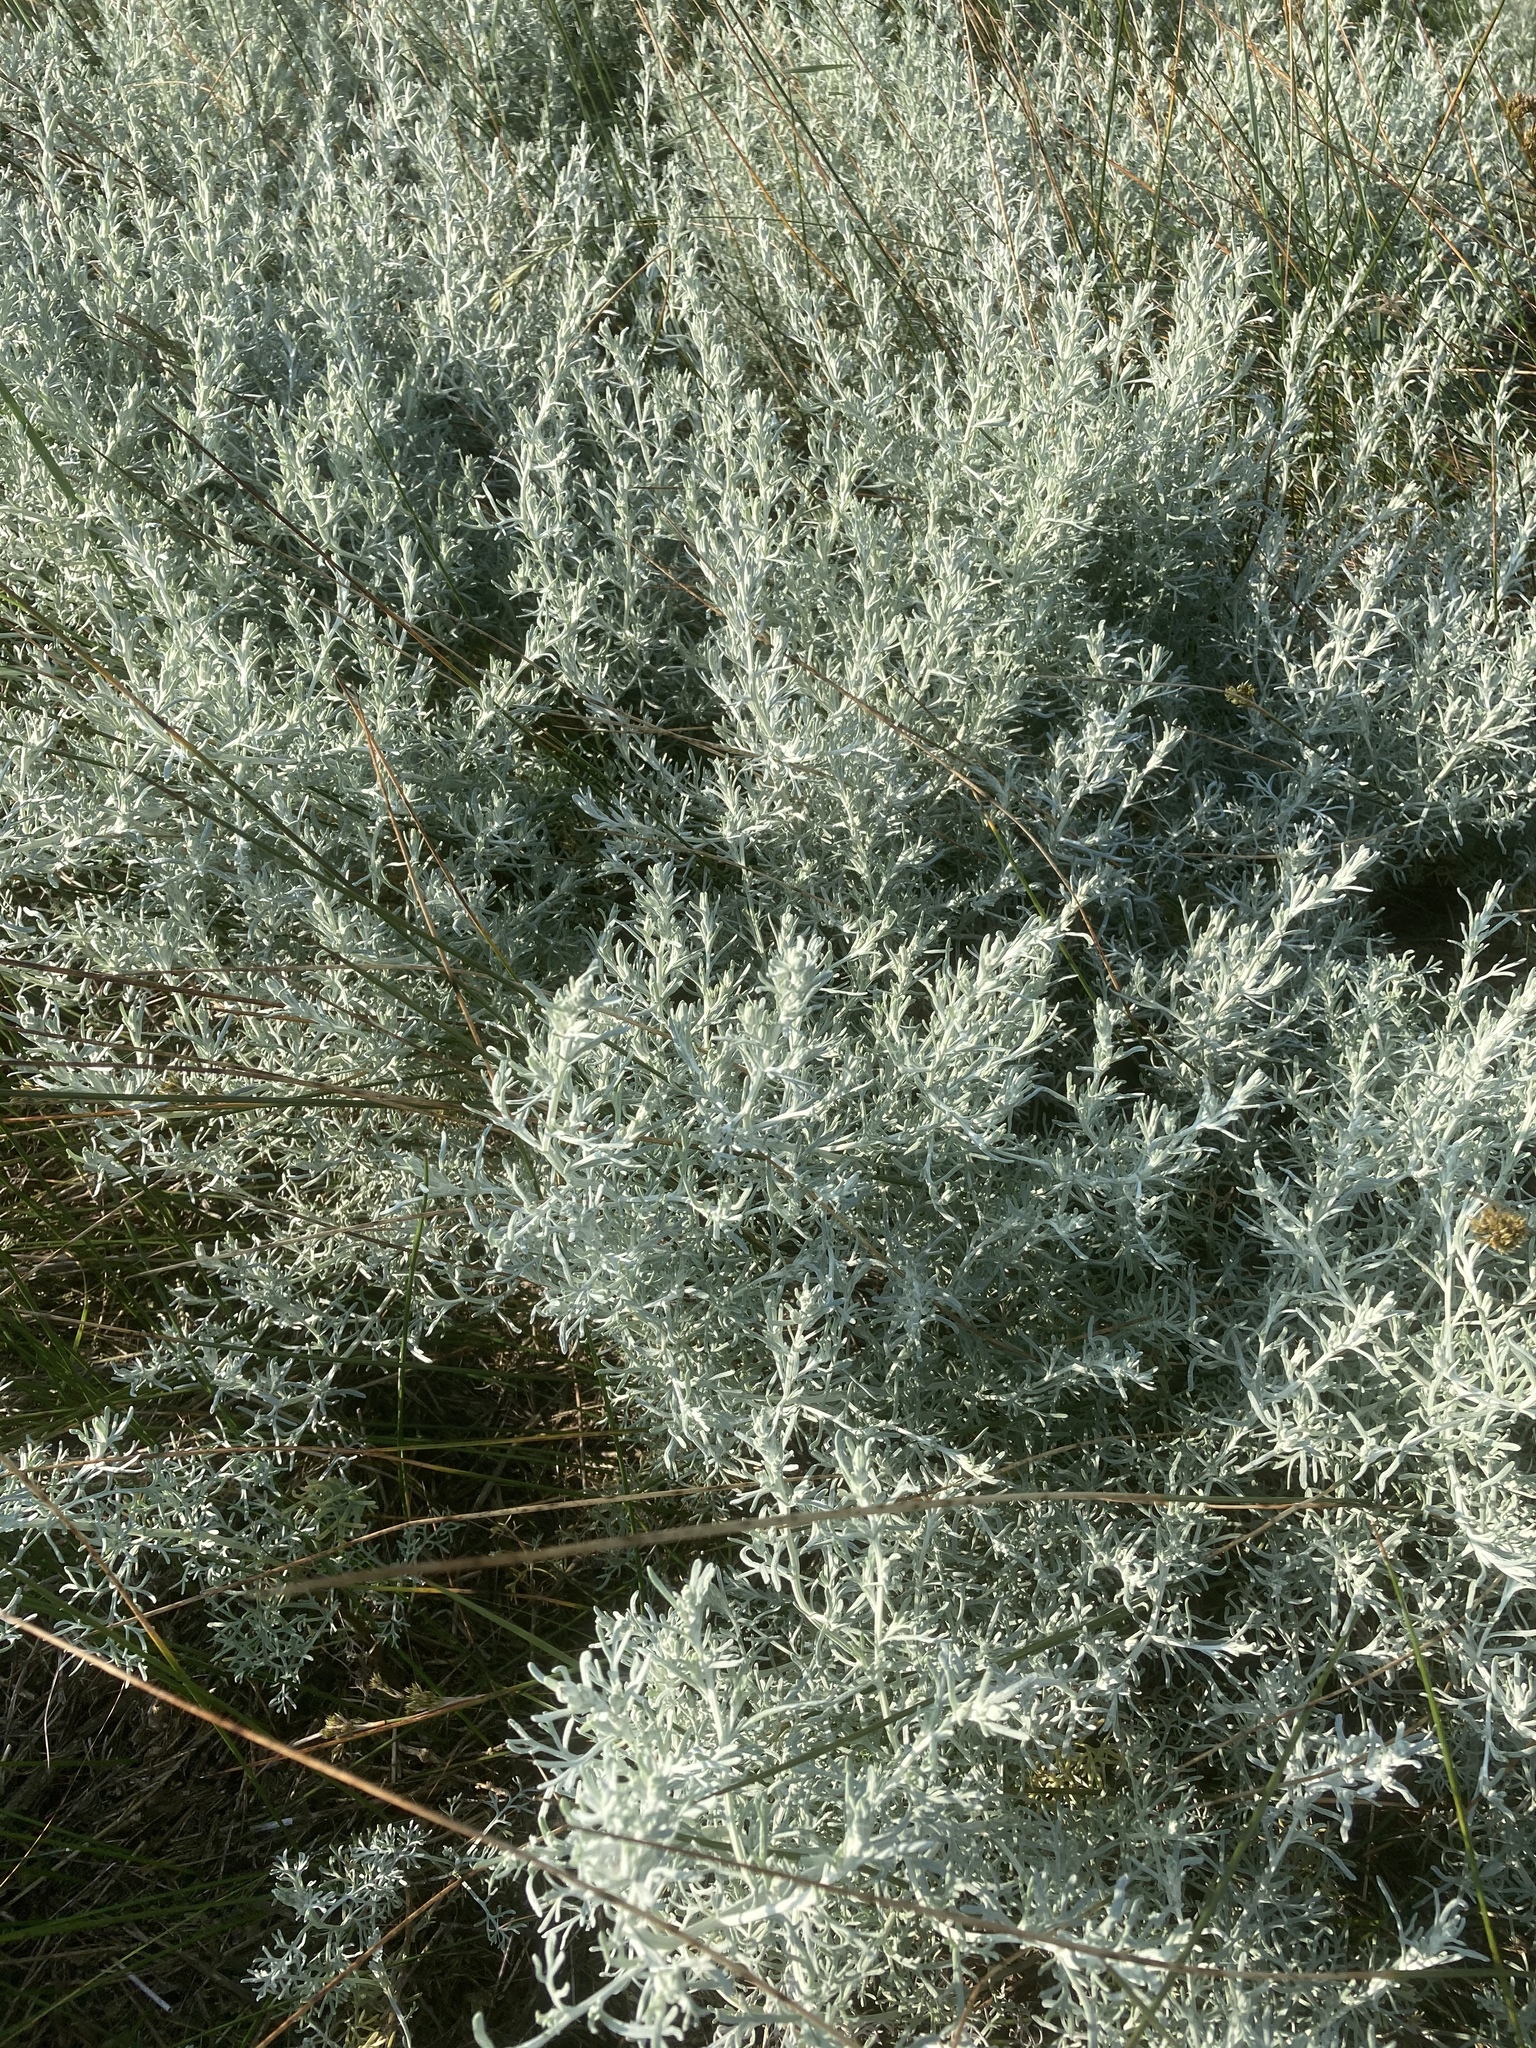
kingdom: Plantae
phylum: Tracheophyta
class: Magnoliopsida
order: Asterales
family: Asteraceae
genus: Artemisia
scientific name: Artemisia maritima
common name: Wormseed
